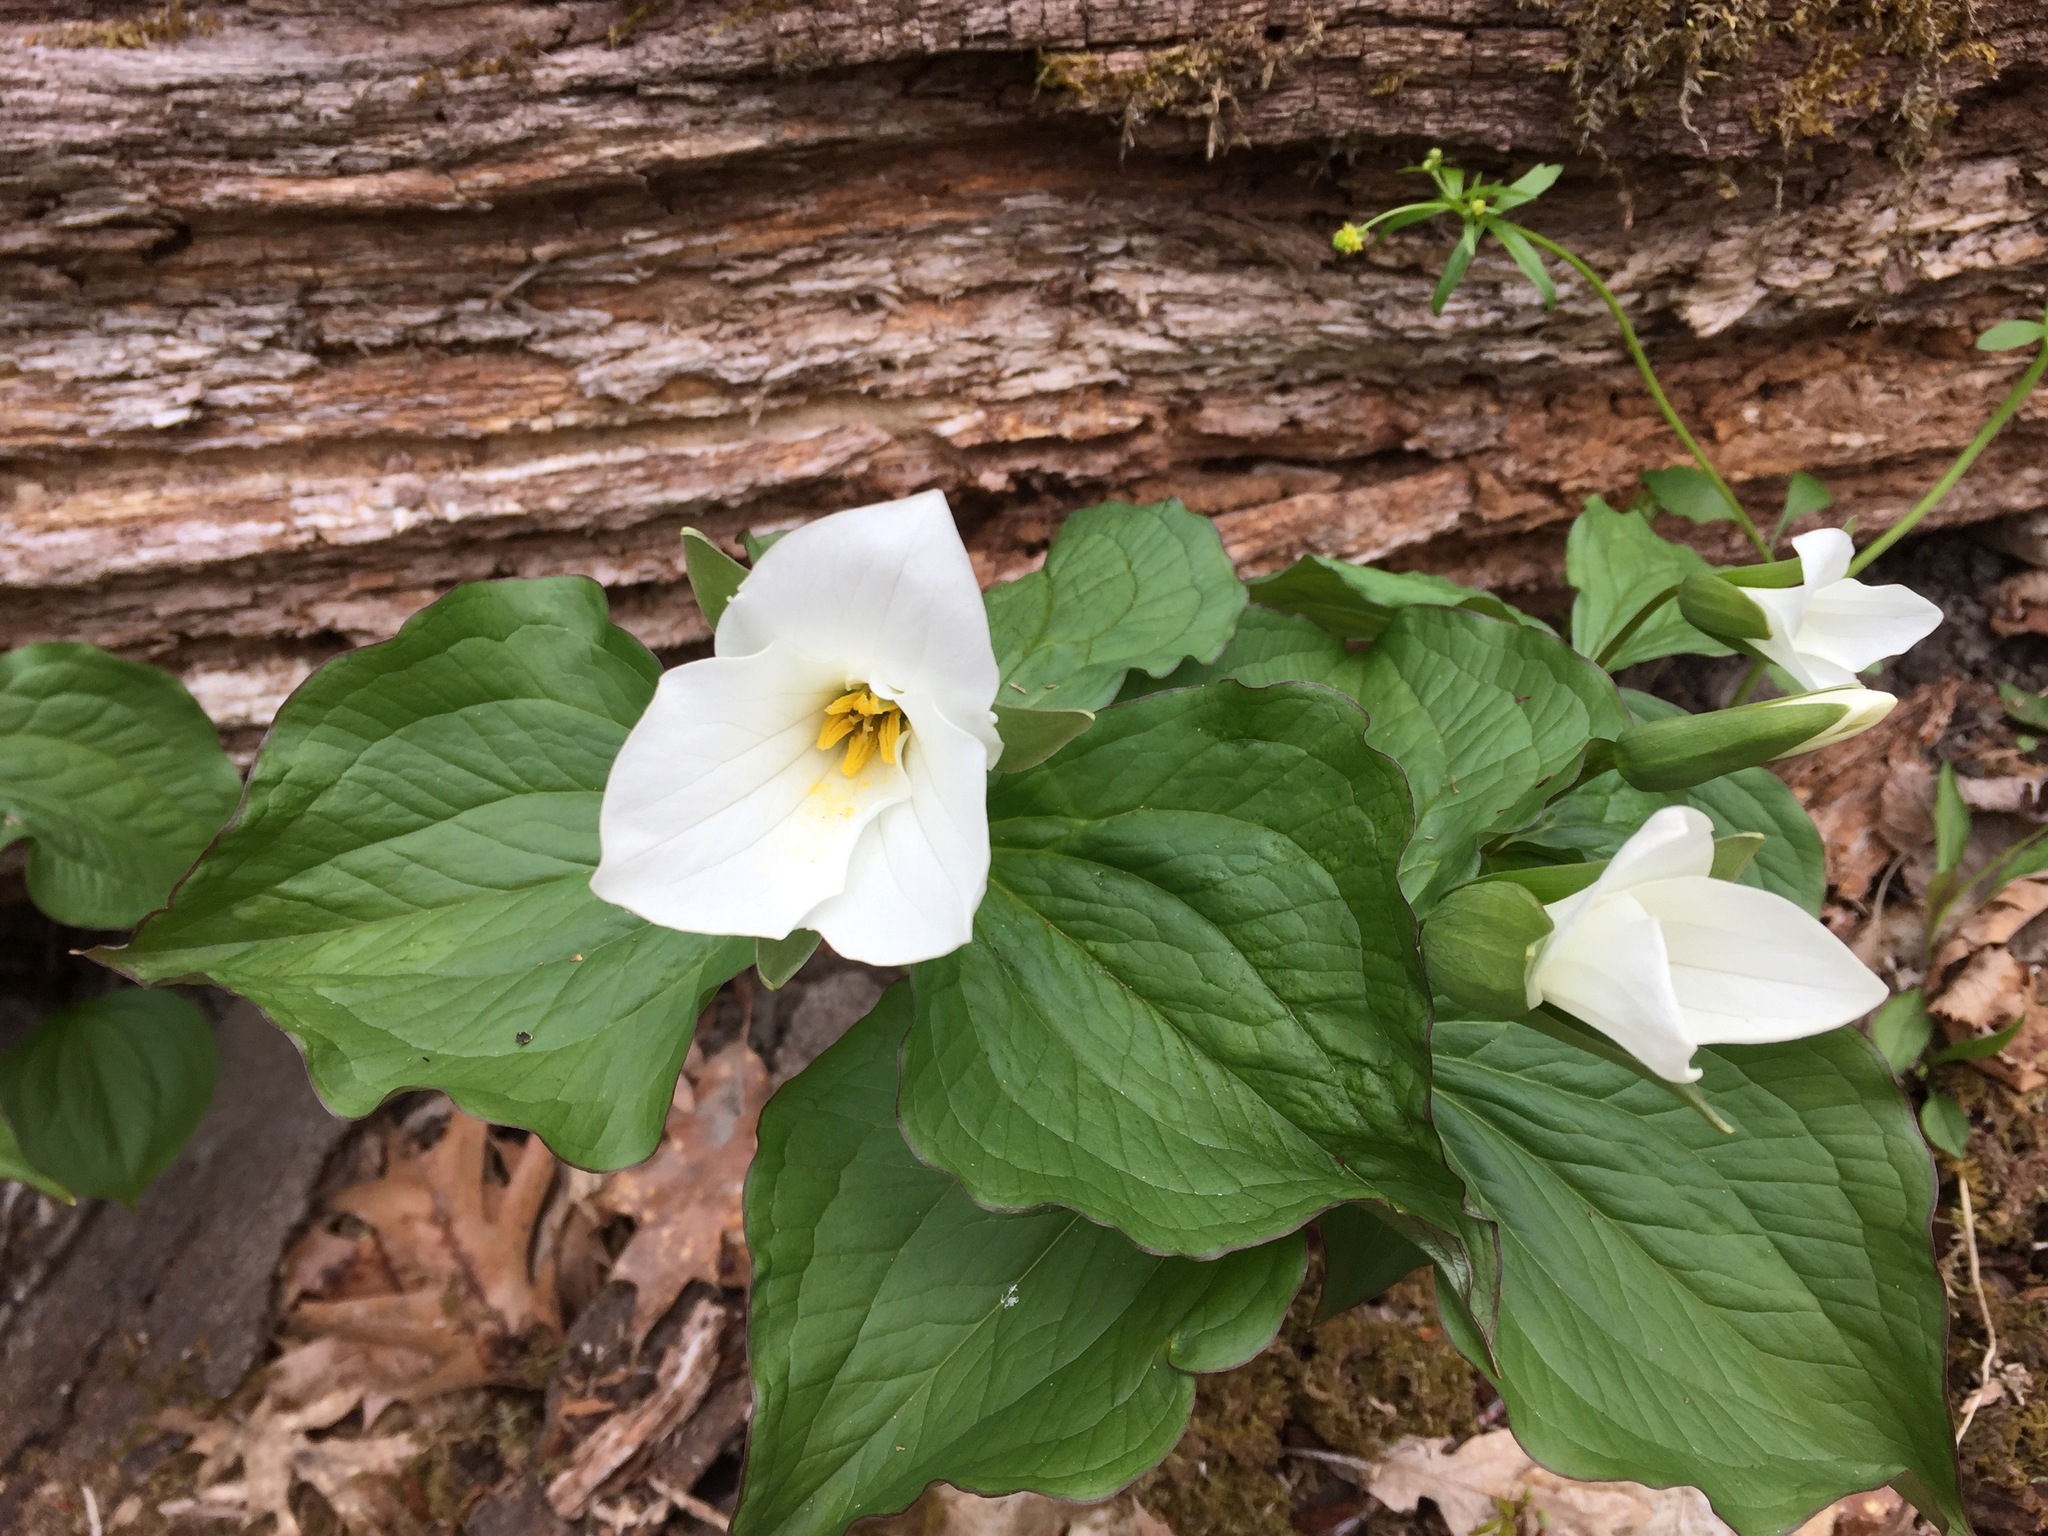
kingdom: Plantae
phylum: Tracheophyta
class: Liliopsida
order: Liliales
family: Melanthiaceae
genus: Trillium
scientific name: Trillium grandiflorum
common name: Great white trillium
